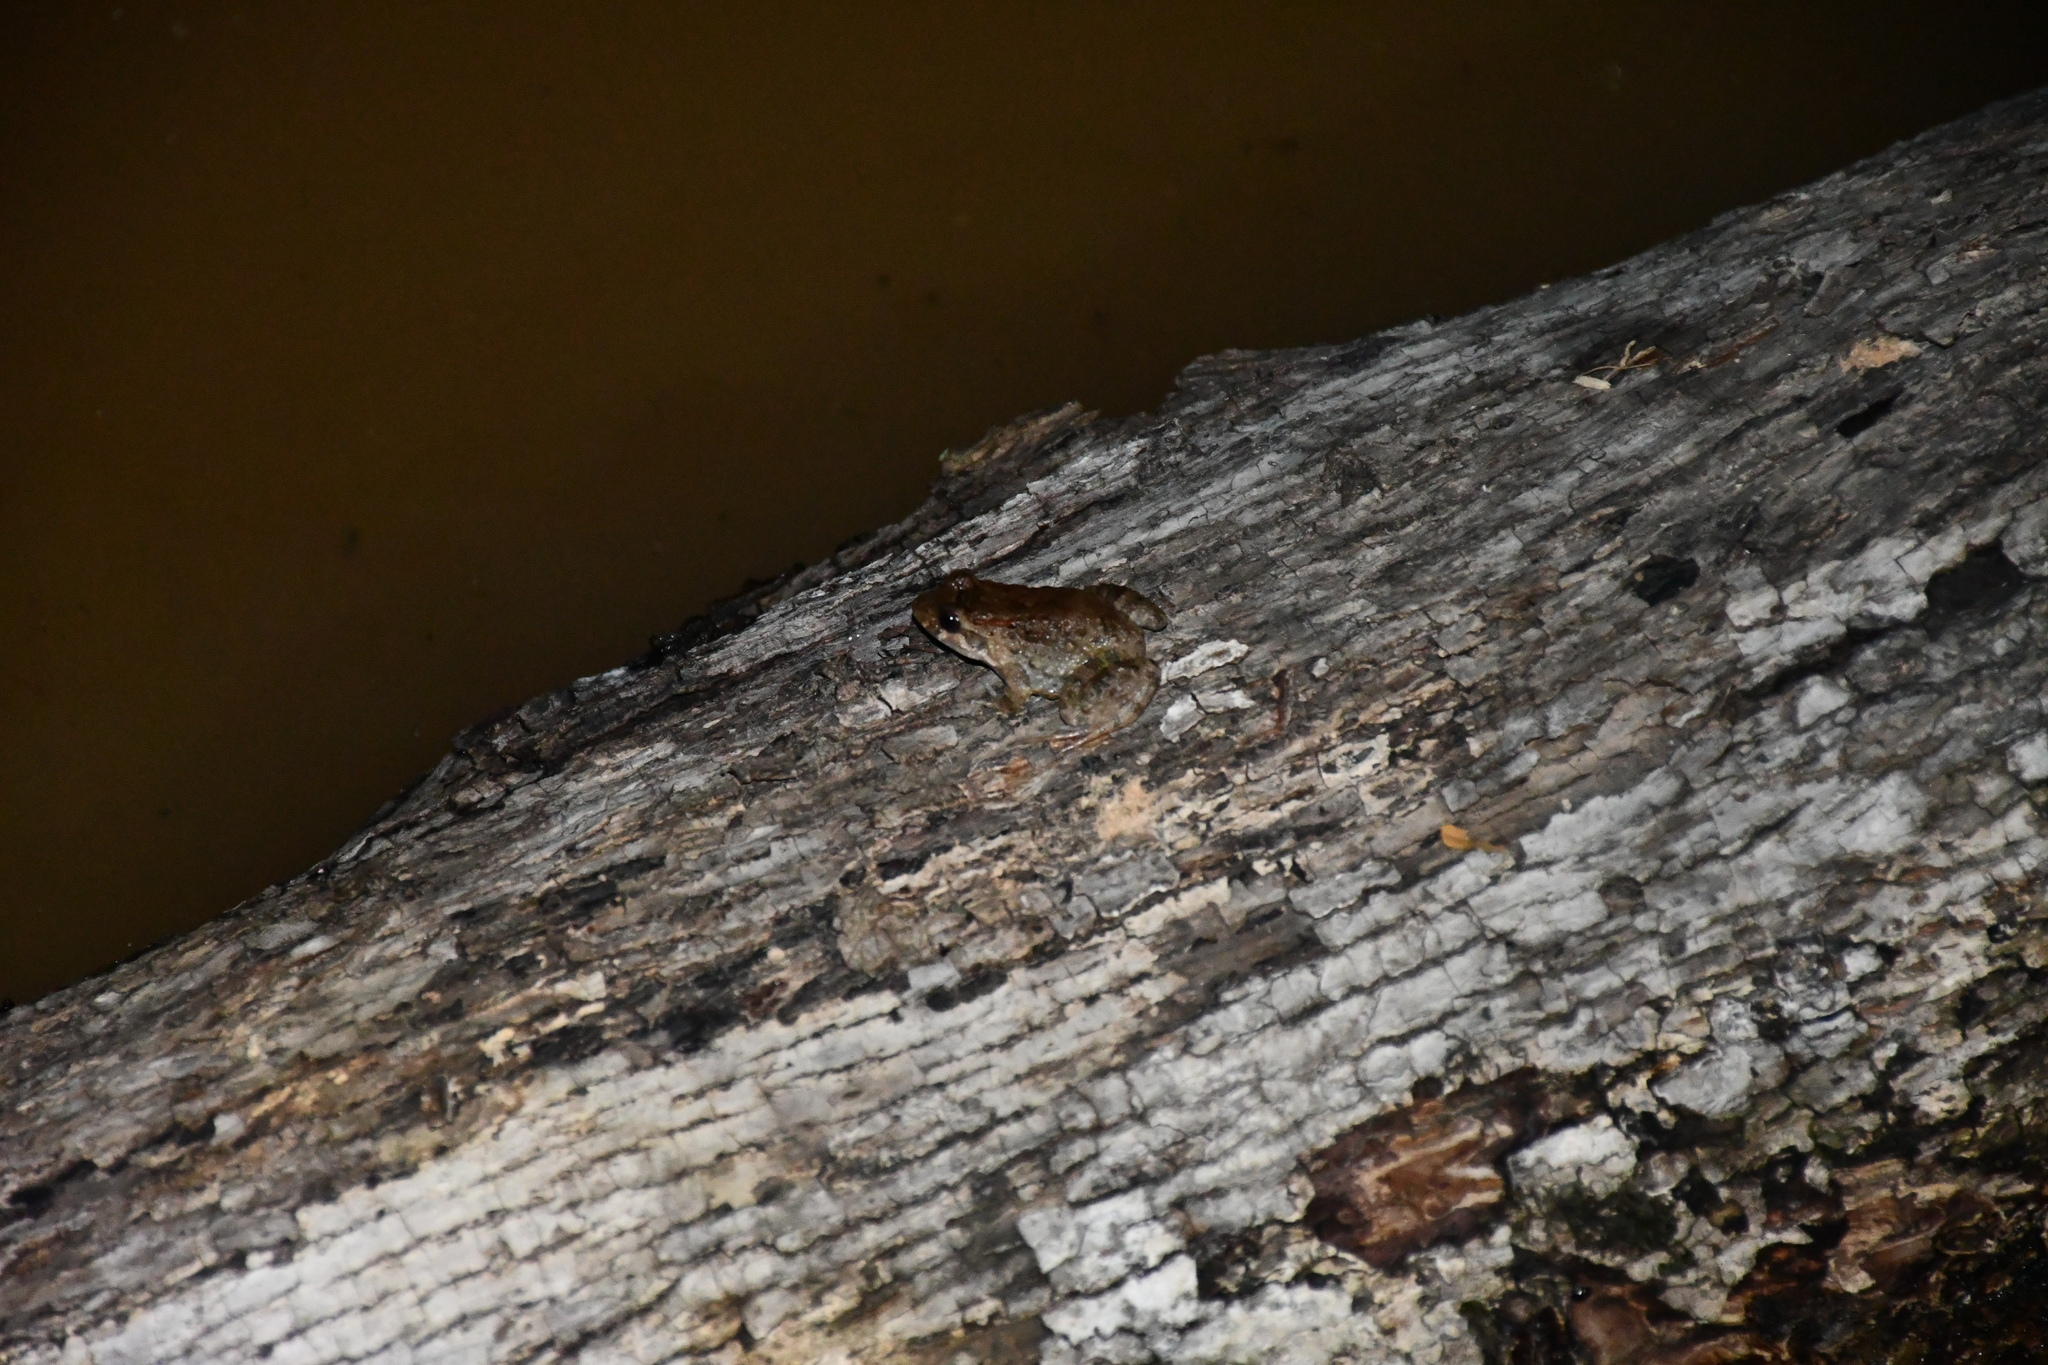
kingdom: Animalia
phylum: Chordata
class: Amphibia
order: Anura
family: Leptodactylidae
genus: Leptodactylus
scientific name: Leptodactylus leptodactyloides
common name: Common thin-toed frog
